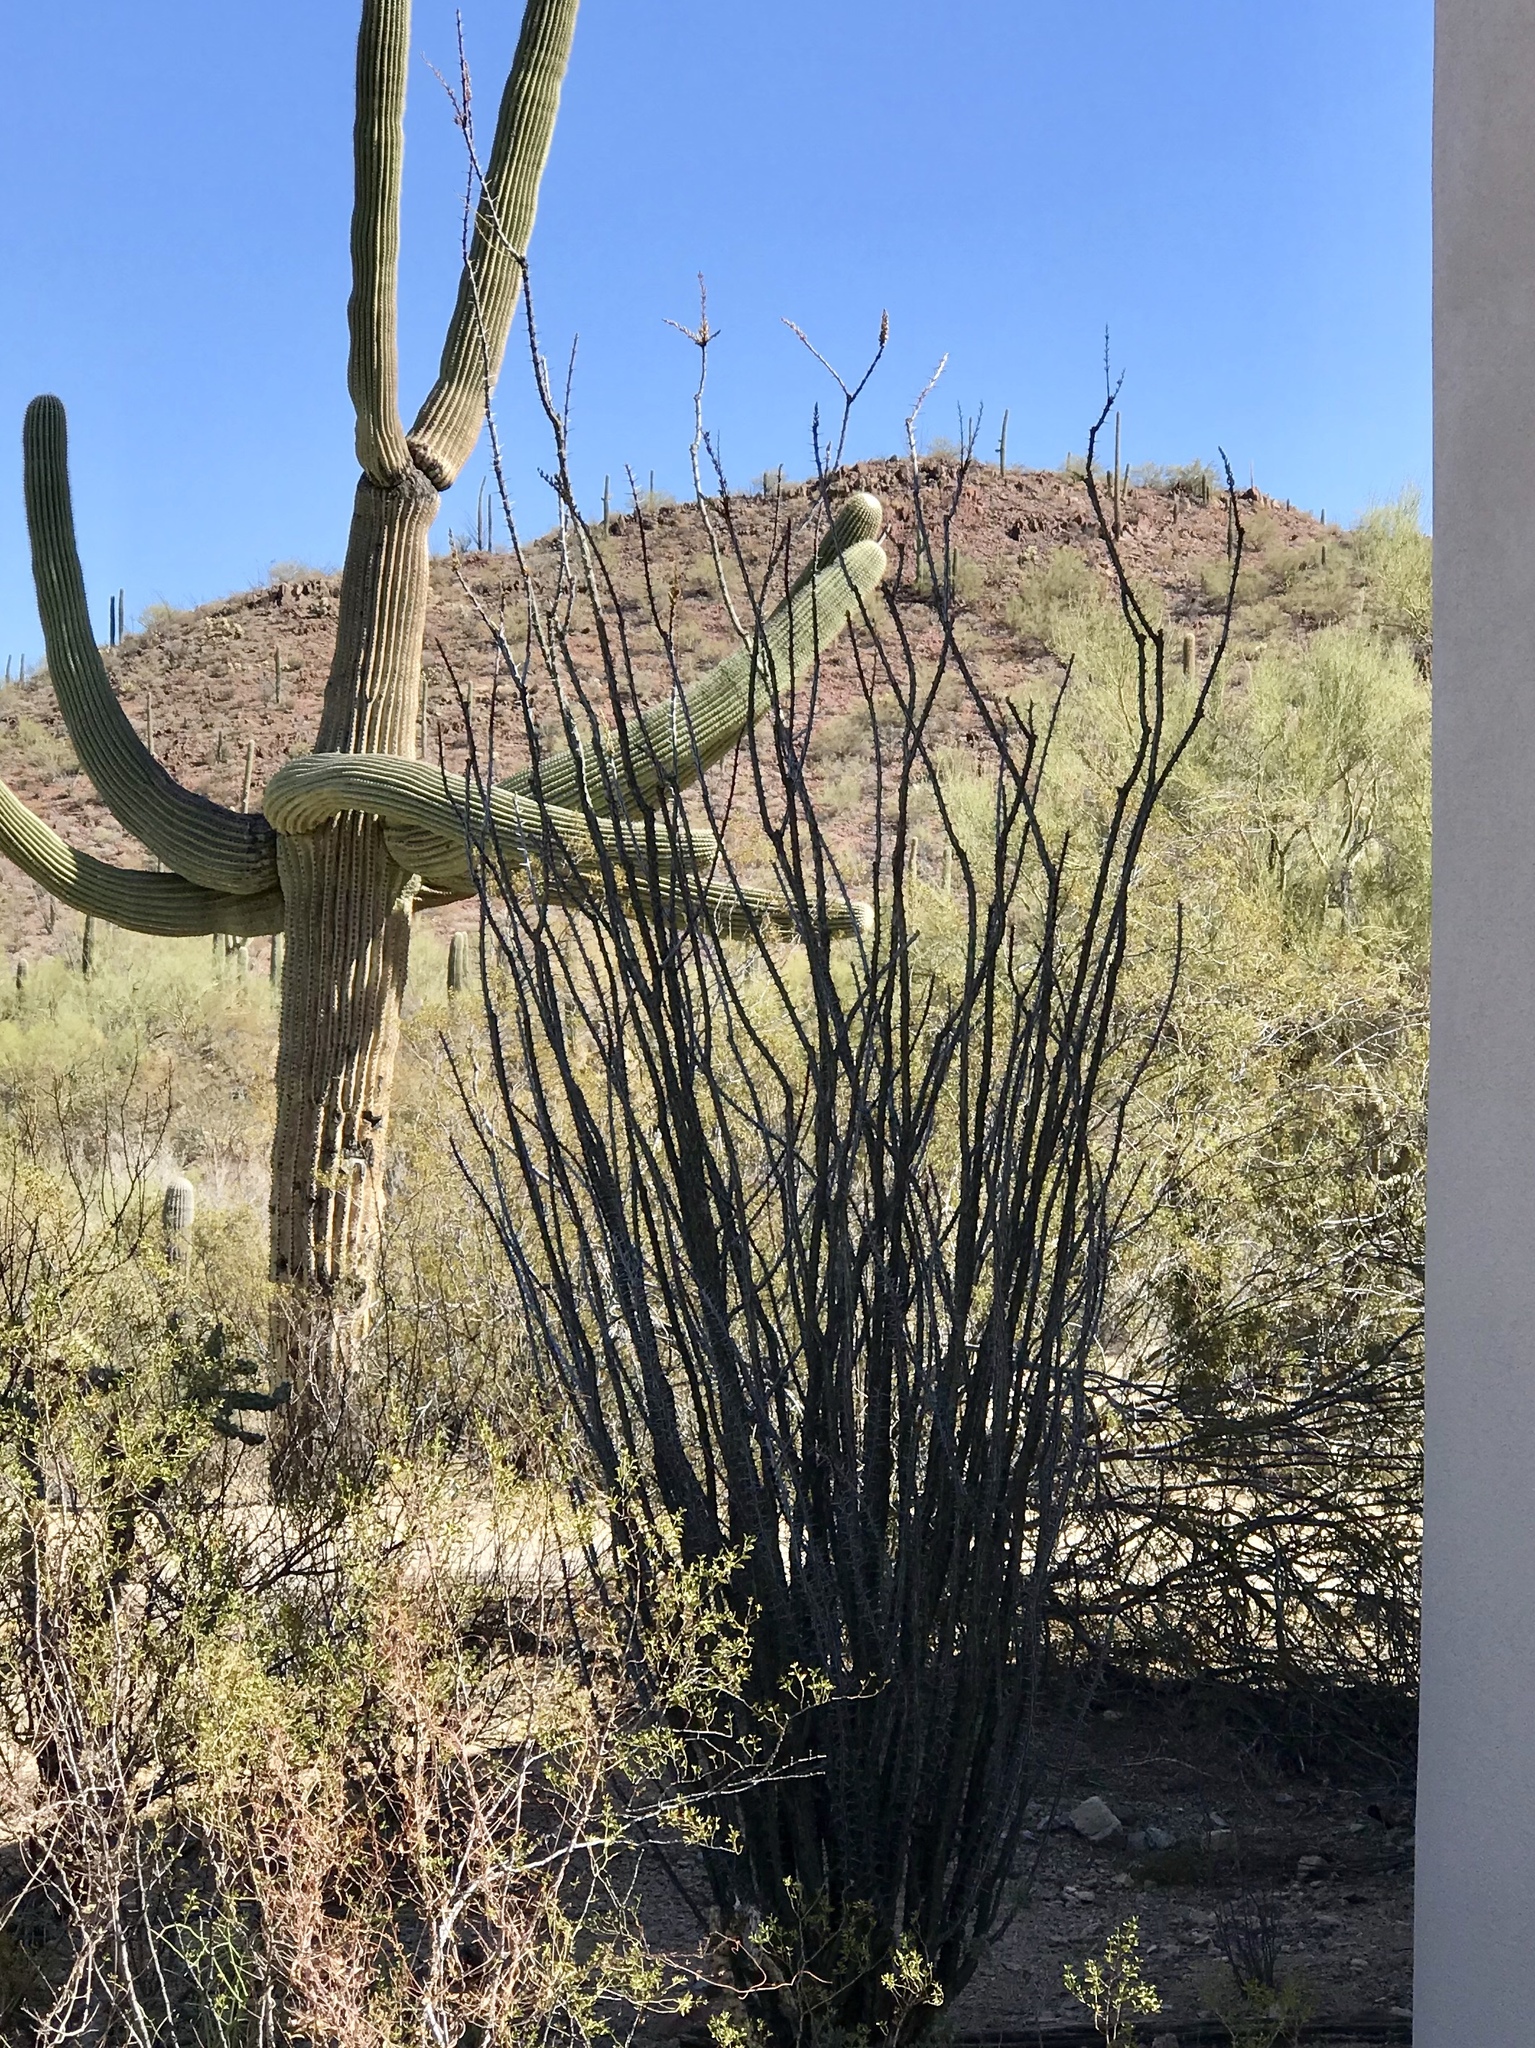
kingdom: Plantae
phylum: Tracheophyta
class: Magnoliopsida
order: Ericales
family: Fouquieriaceae
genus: Fouquieria
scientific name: Fouquieria splendens
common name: Vine-cactus
